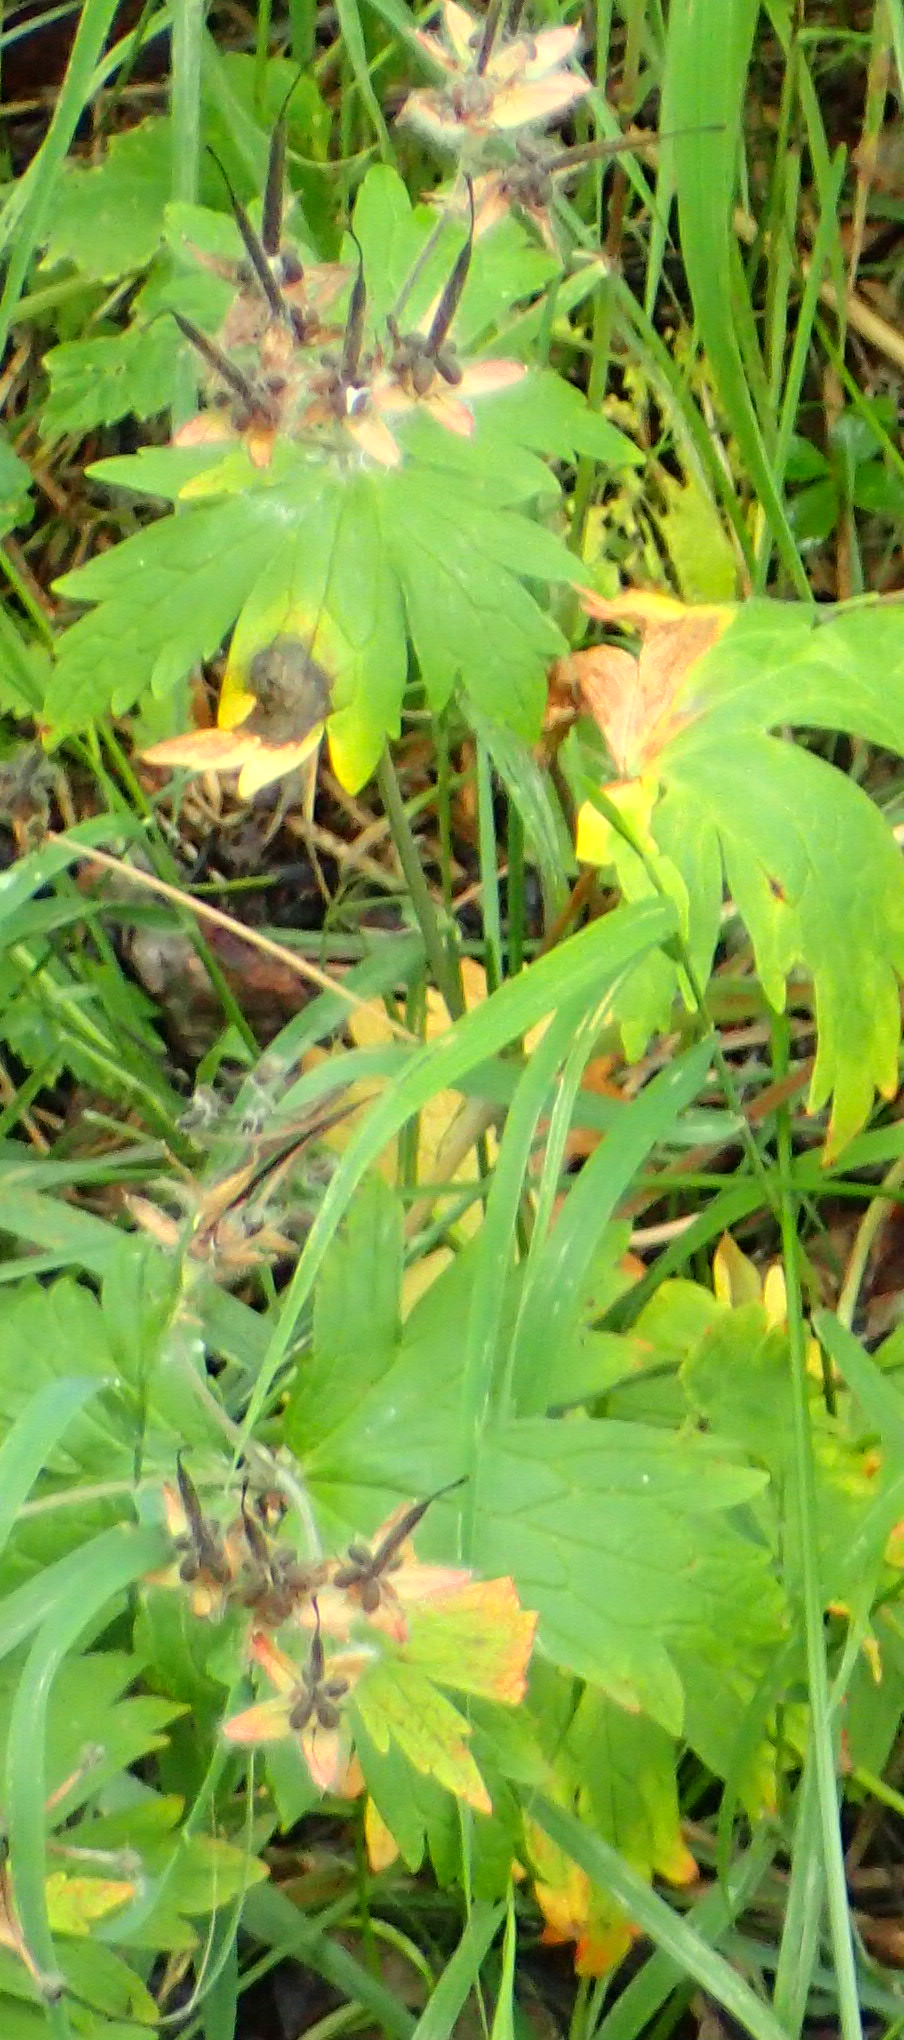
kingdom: Plantae
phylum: Tracheophyta
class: Magnoliopsida
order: Geraniales
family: Geraniaceae
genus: Geranium
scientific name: Geranium erianthum
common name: Northern crane's-bill
